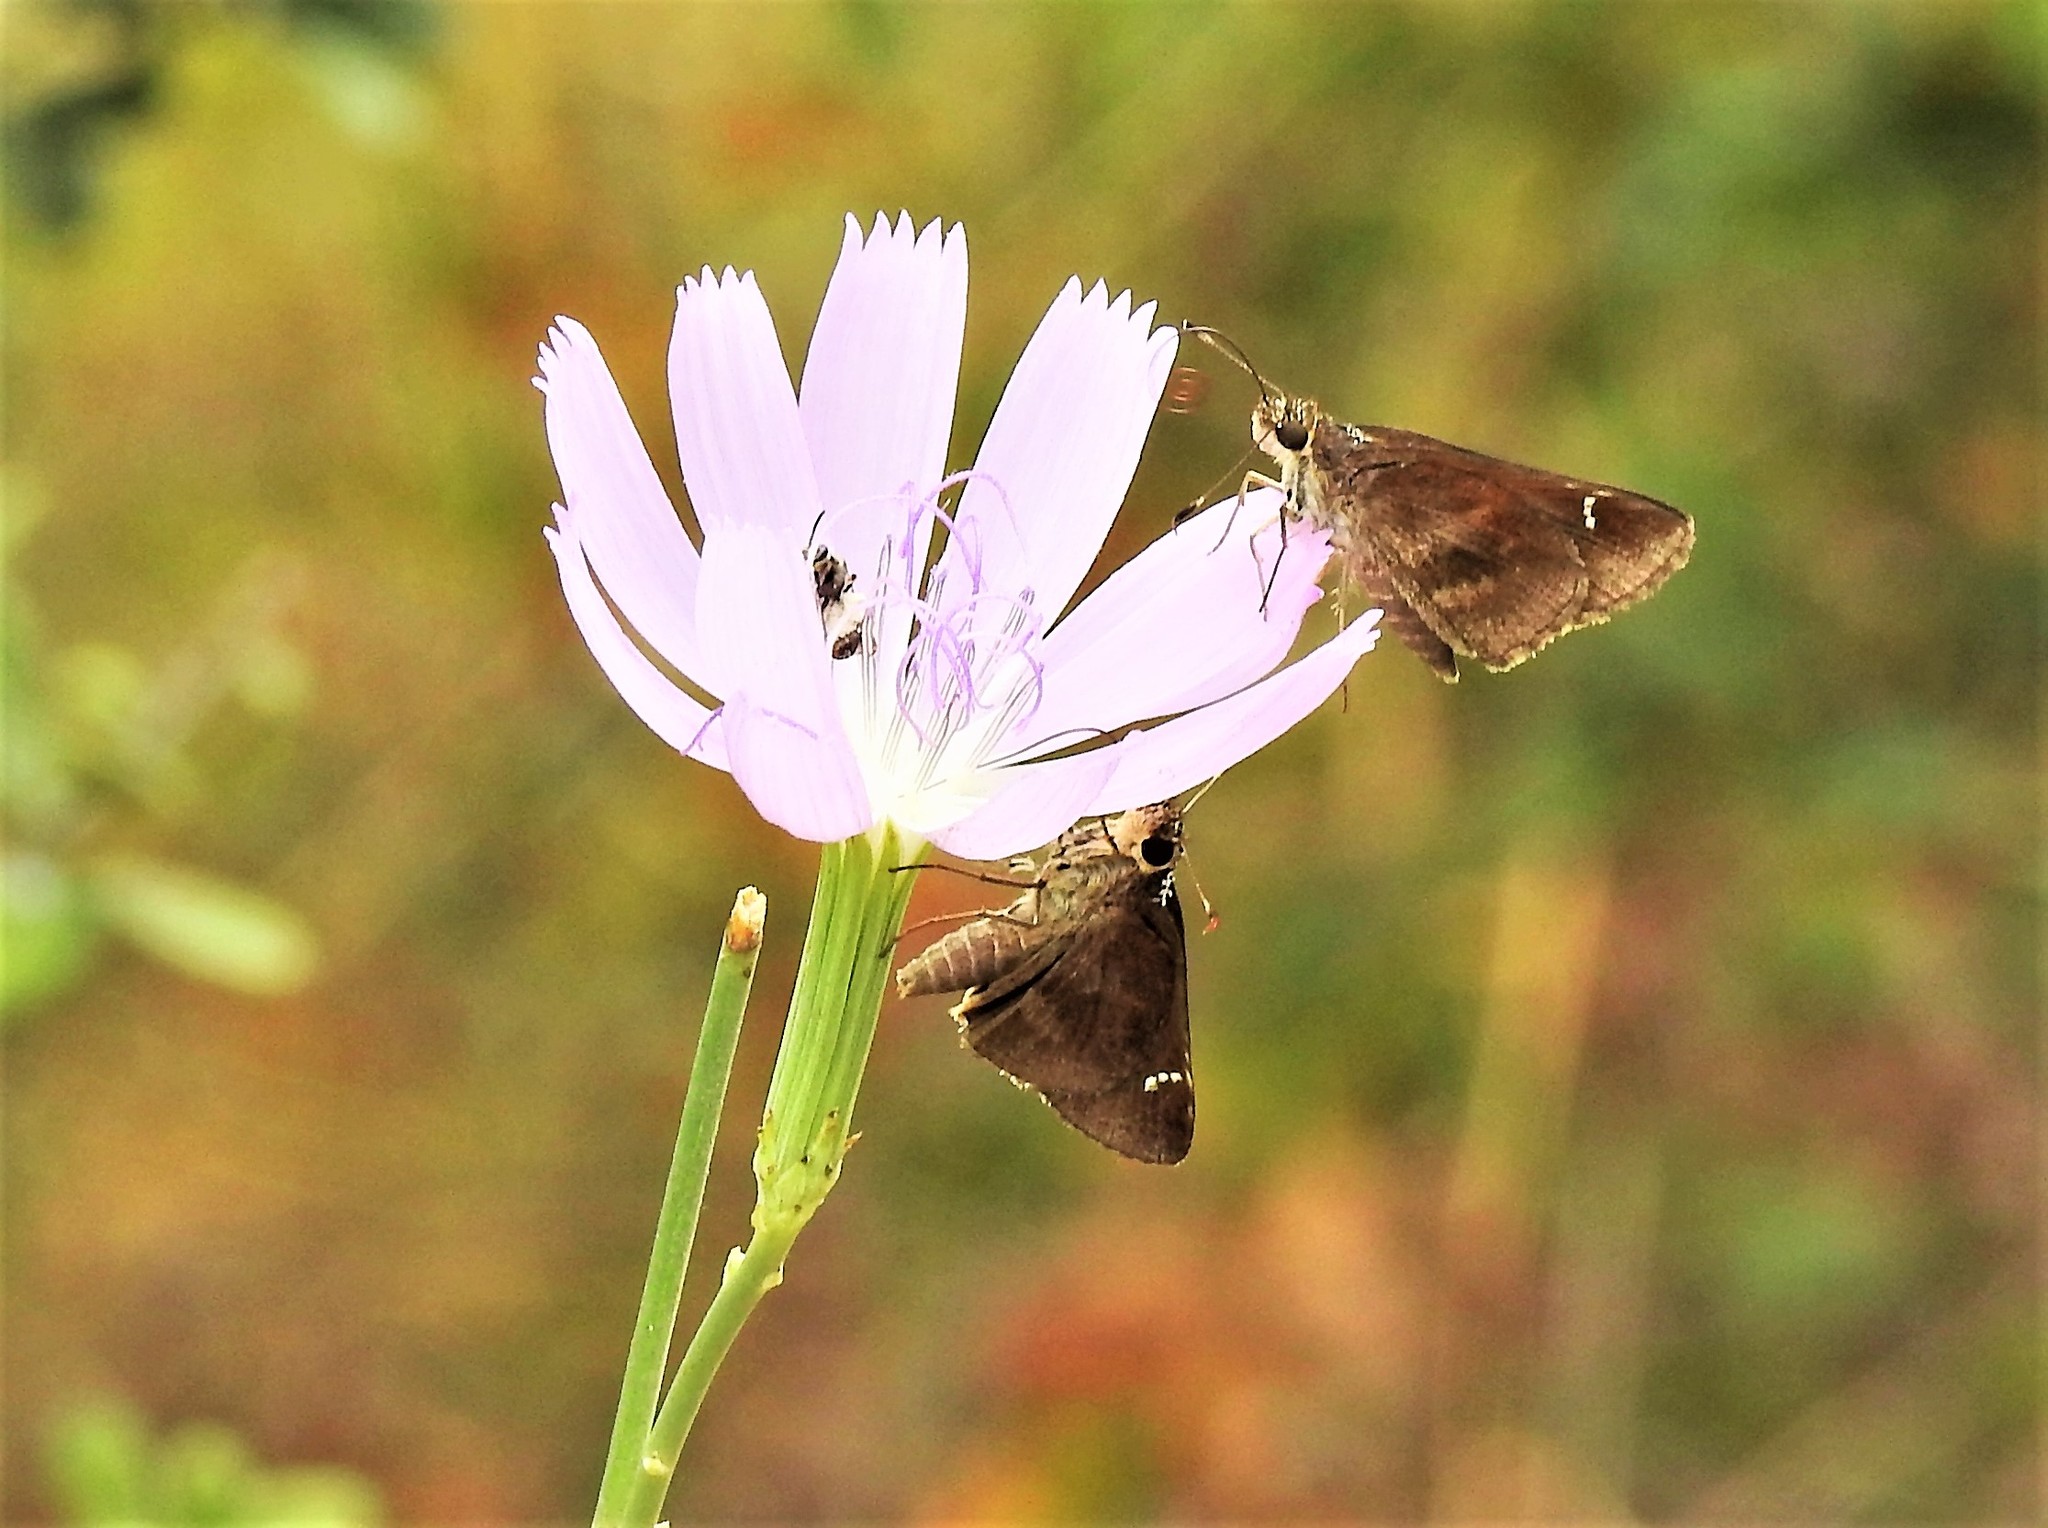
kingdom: Animalia
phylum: Arthropoda
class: Insecta
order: Lepidoptera
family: Hesperiidae
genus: Lerema
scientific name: Lerema accius
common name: Clouded skipper
